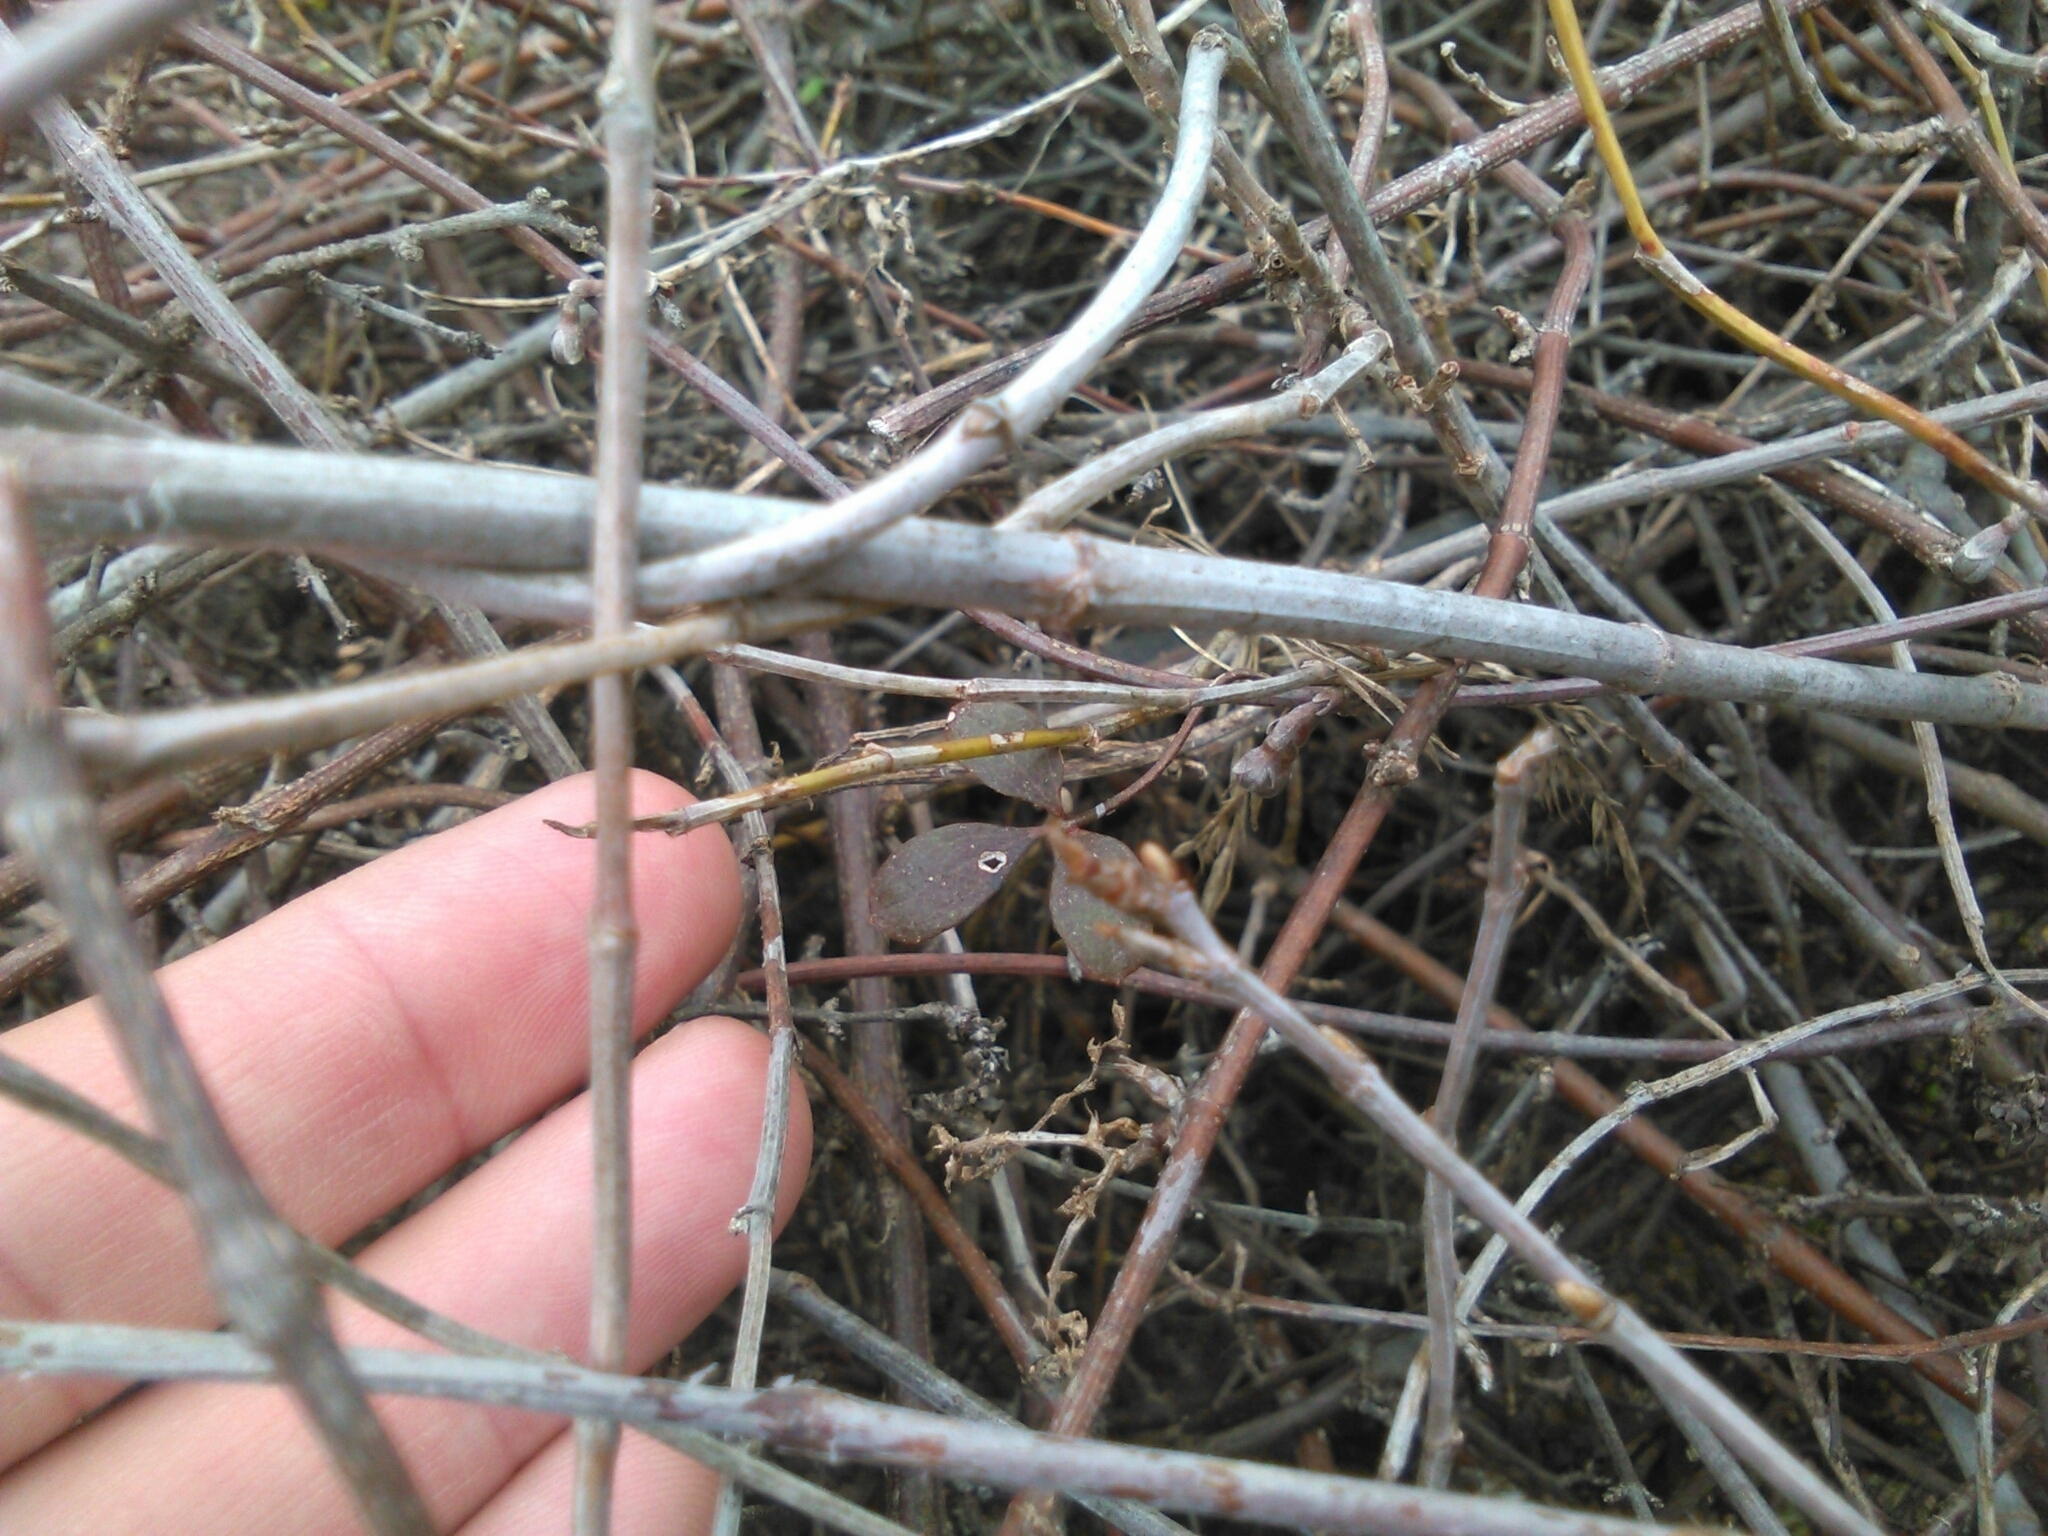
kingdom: Plantae
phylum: Tracheophyta
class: Magnoliopsida
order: Ranunculales
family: Ranunculaceae
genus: Clematis
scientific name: Clematis quadribracteolata
